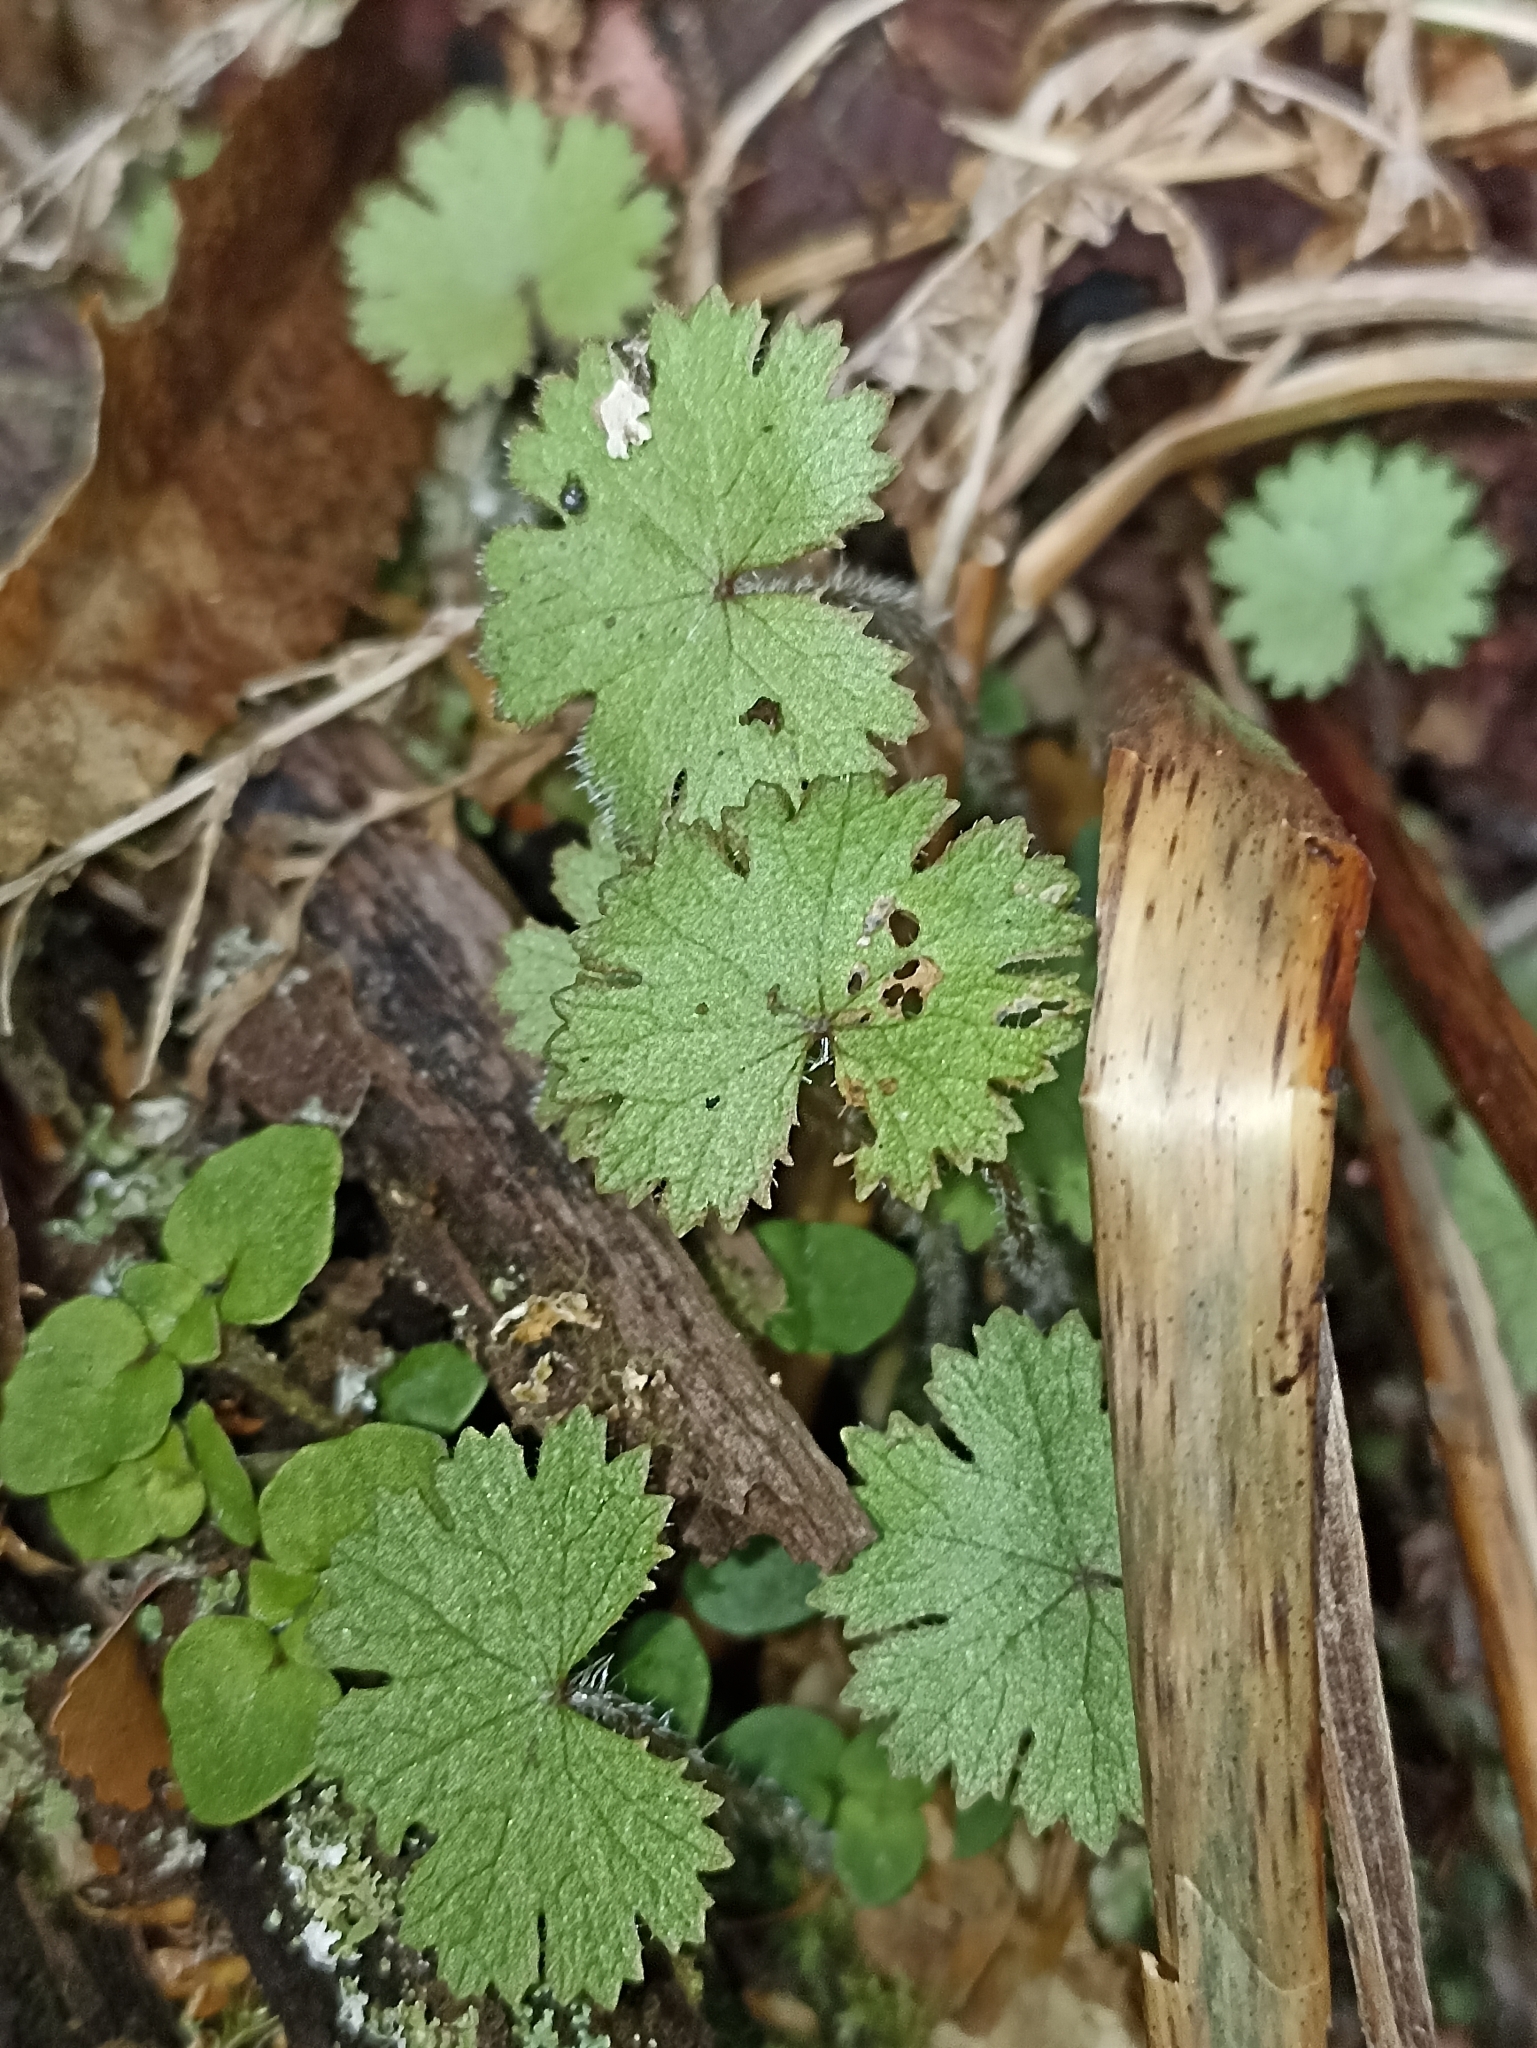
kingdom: Plantae
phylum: Tracheophyta
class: Magnoliopsida
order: Apiales
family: Araliaceae
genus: Hydrocotyle
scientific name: Hydrocotyle moschata
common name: Hairy pennywort
